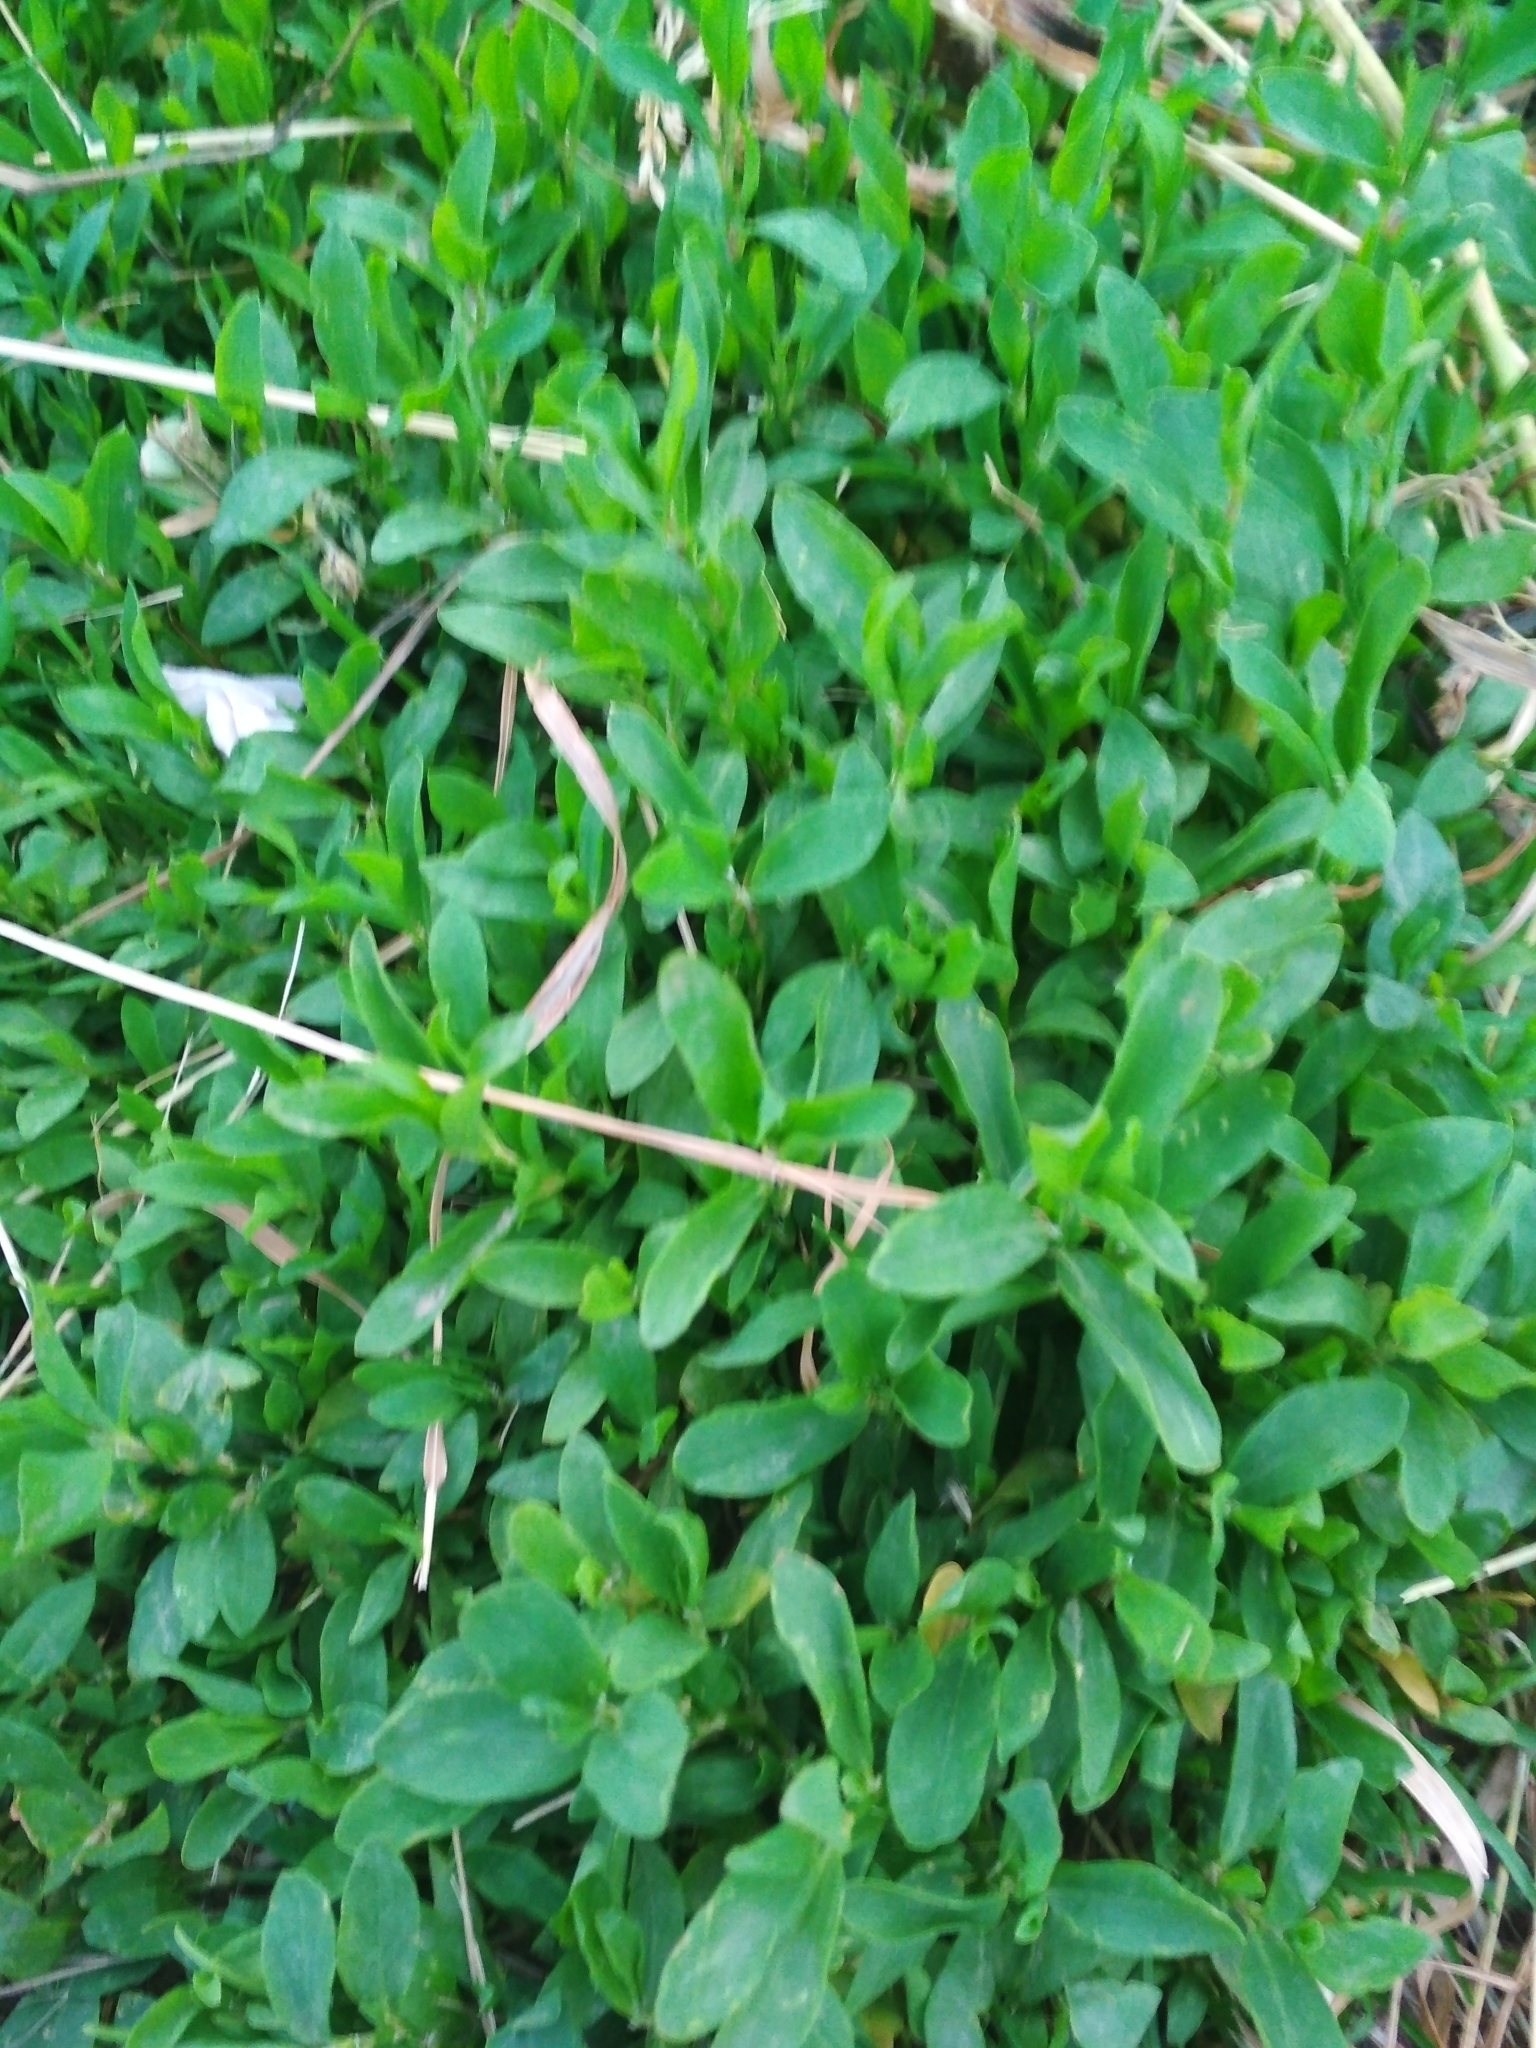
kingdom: Plantae
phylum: Tracheophyta
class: Magnoliopsida
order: Caryophyllales
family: Polygonaceae
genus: Polygonum
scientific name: Polygonum
